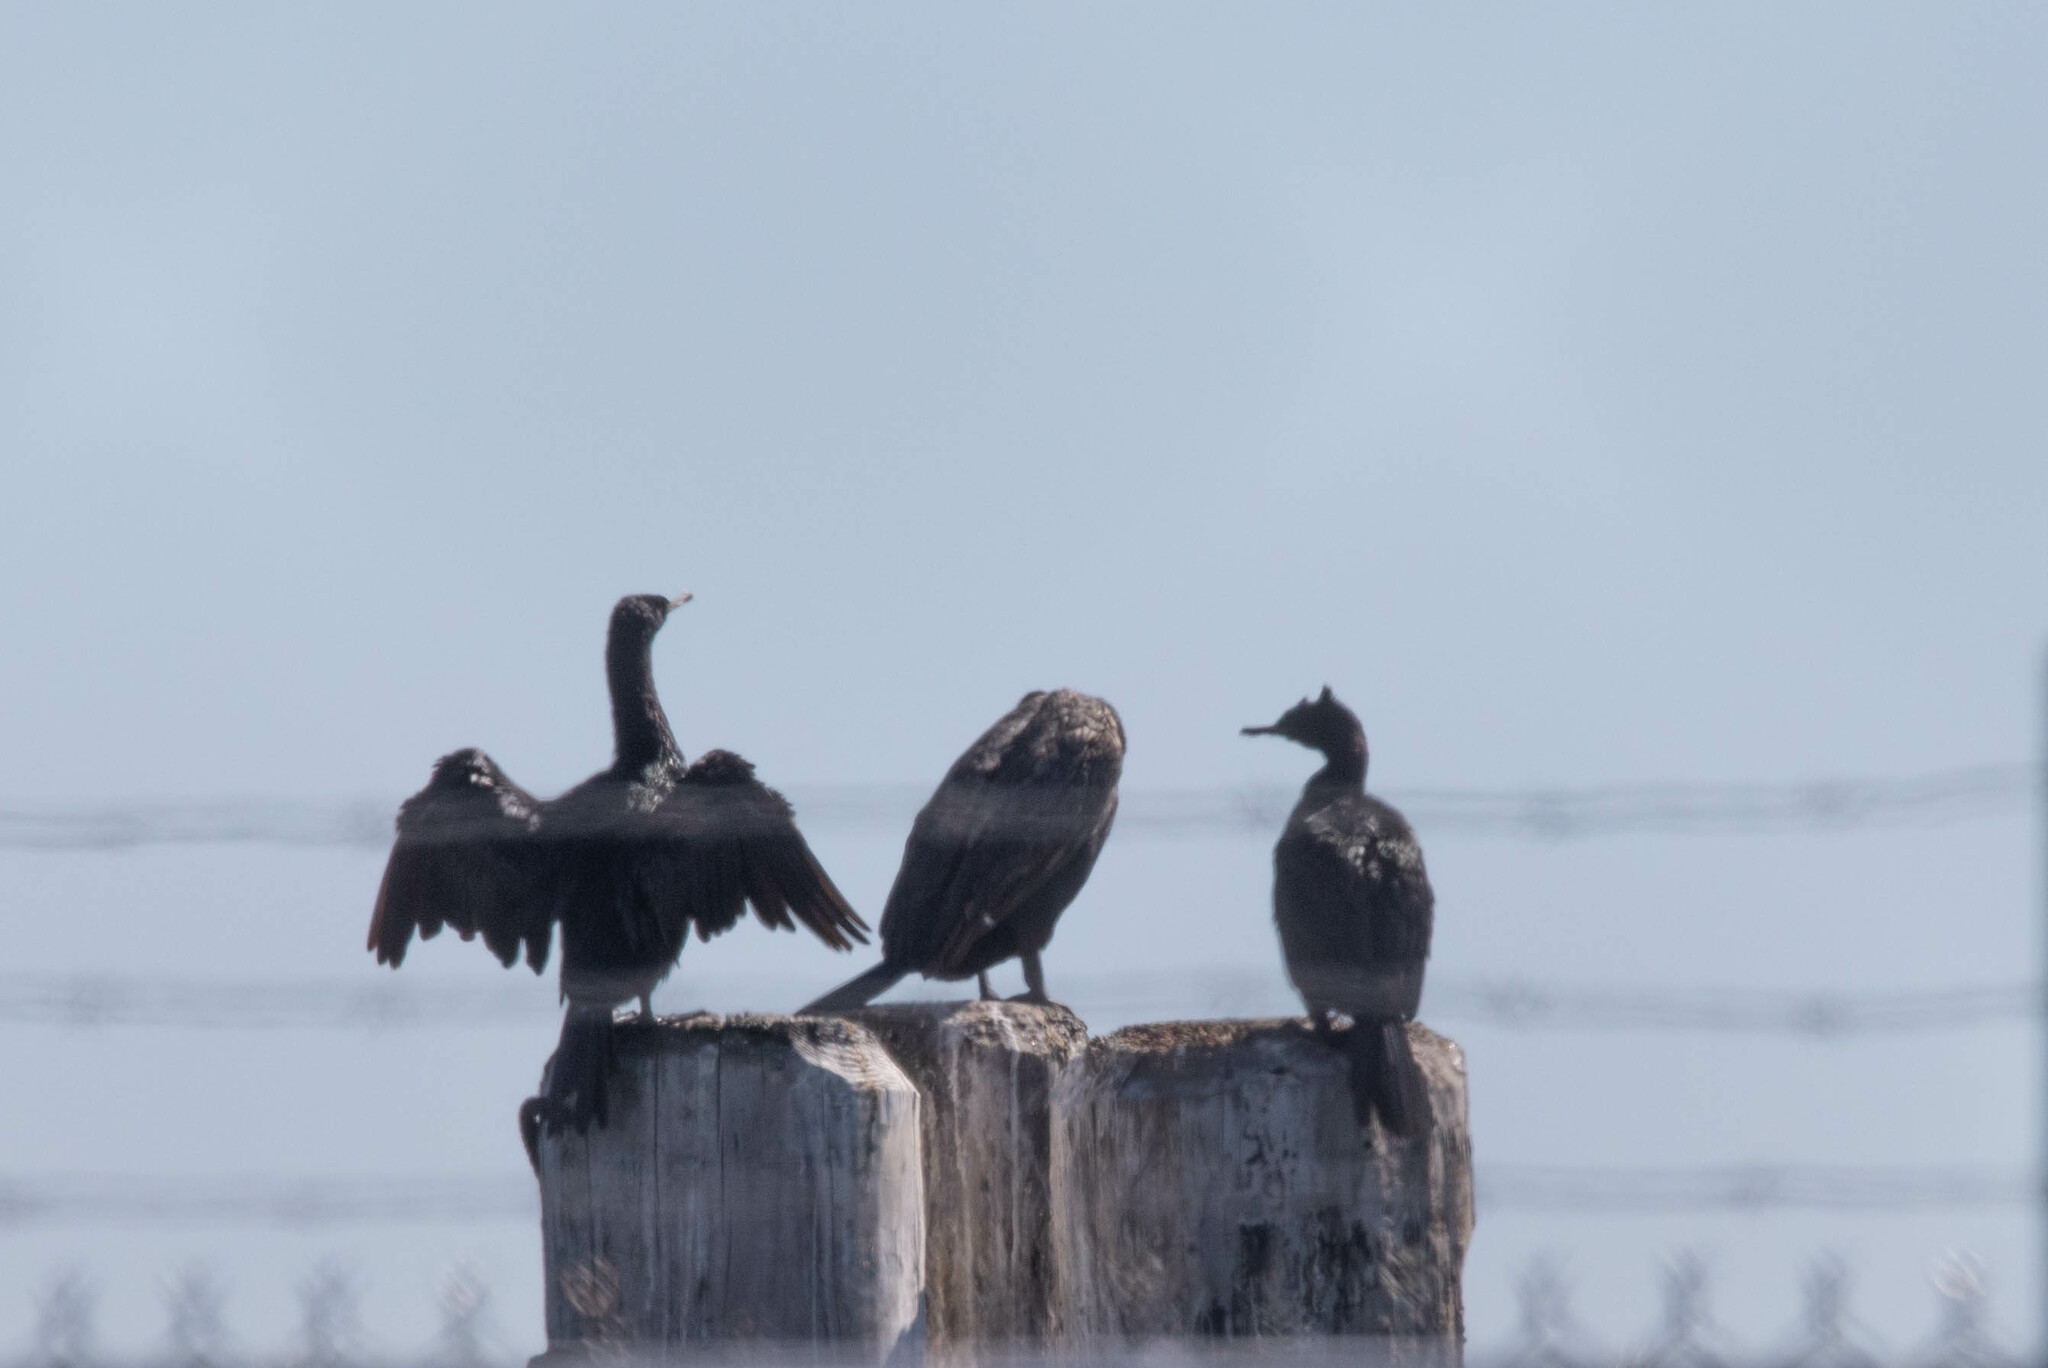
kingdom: Animalia
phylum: Chordata
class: Aves
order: Suliformes
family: Phalacrocoracidae
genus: Phalacrocorax
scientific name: Phalacrocorax pelagicus
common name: Pelagic cormorant
